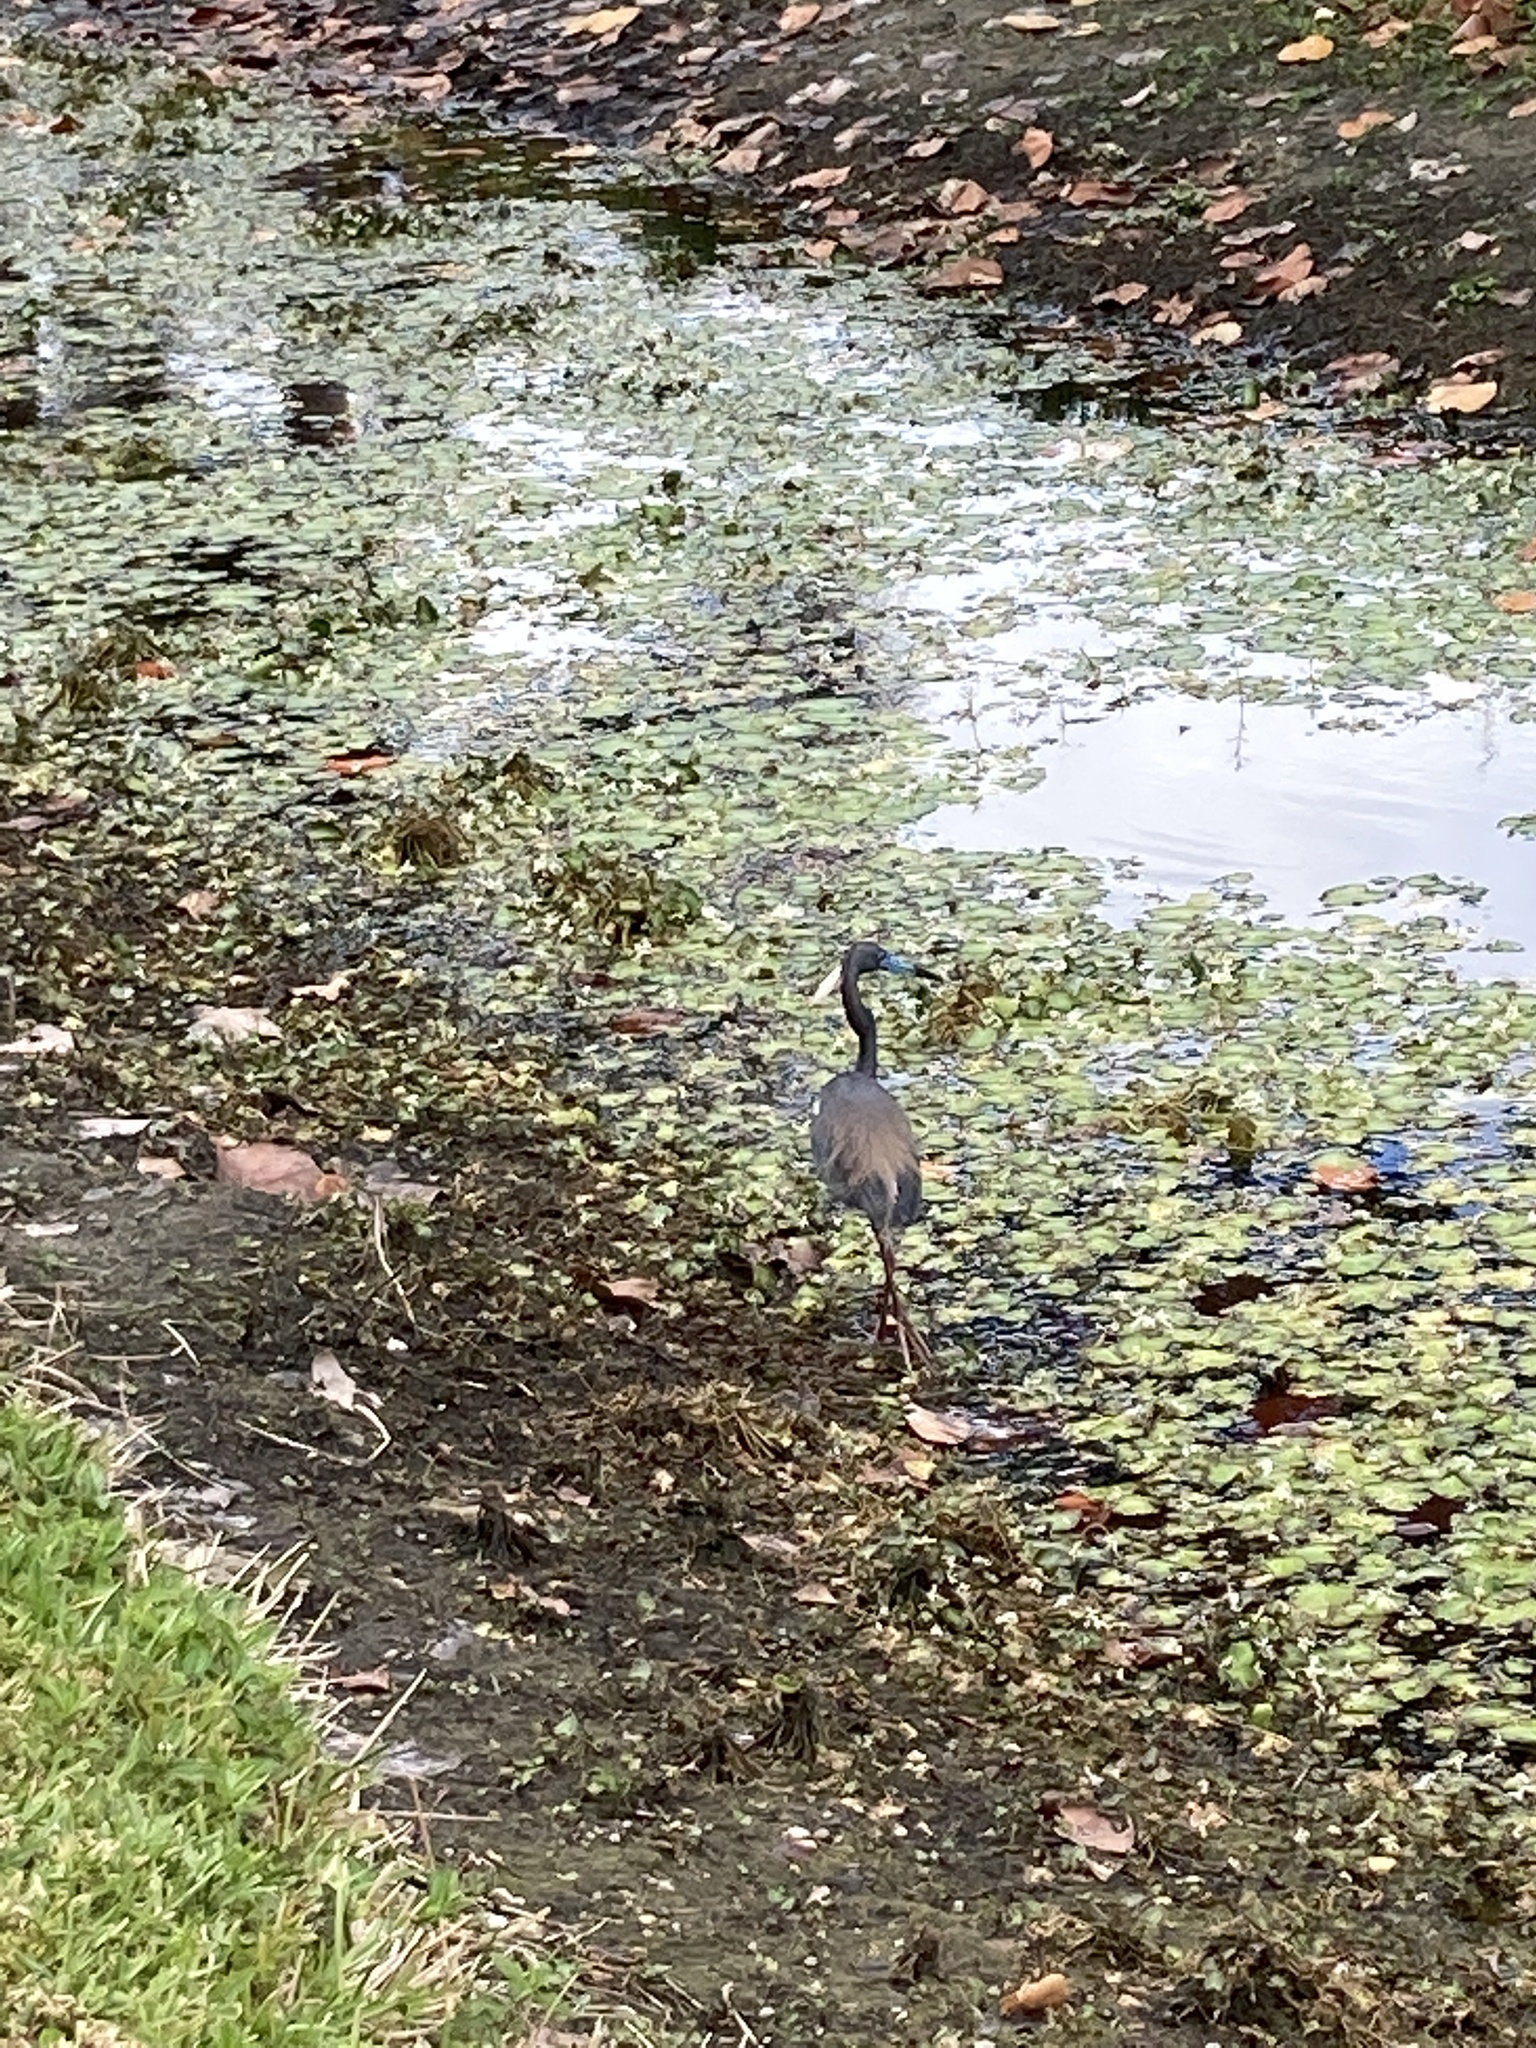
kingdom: Animalia
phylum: Chordata
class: Aves
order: Pelecaniformes
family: Ardeidae
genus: Egretta
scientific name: Egretta tricolor
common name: Tricolored heron
